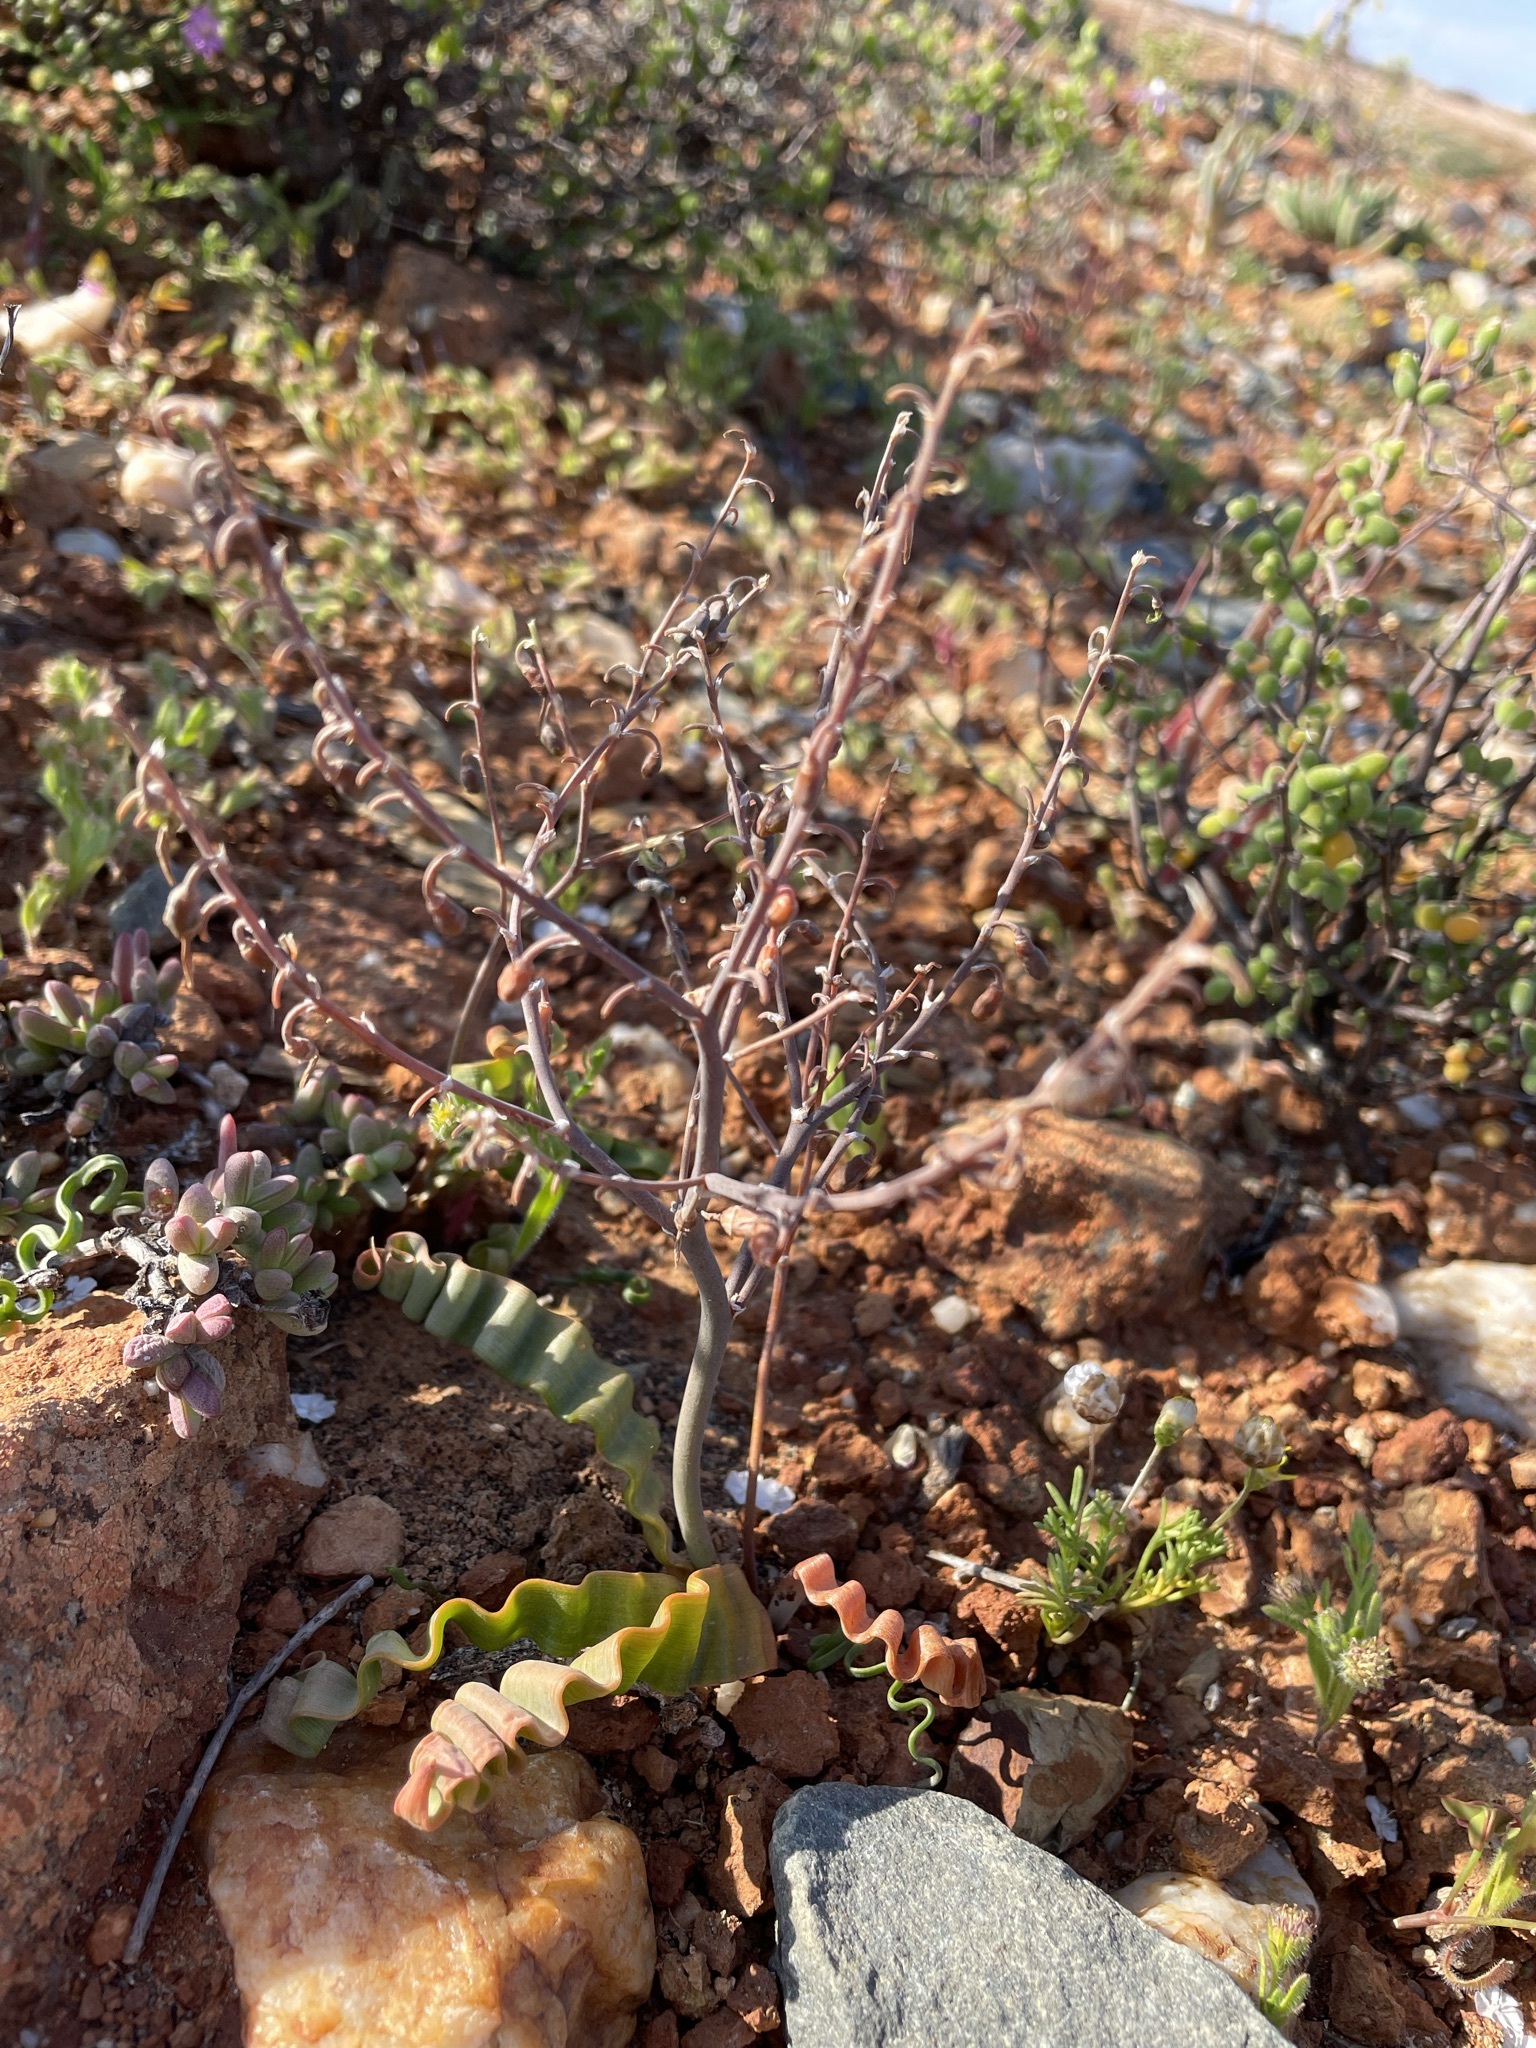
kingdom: Plantae
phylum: Tracheophyta
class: Liliopsida
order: Asparagales
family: Asphodelaceae
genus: Trachyandra
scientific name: Trachyandra tortilis
